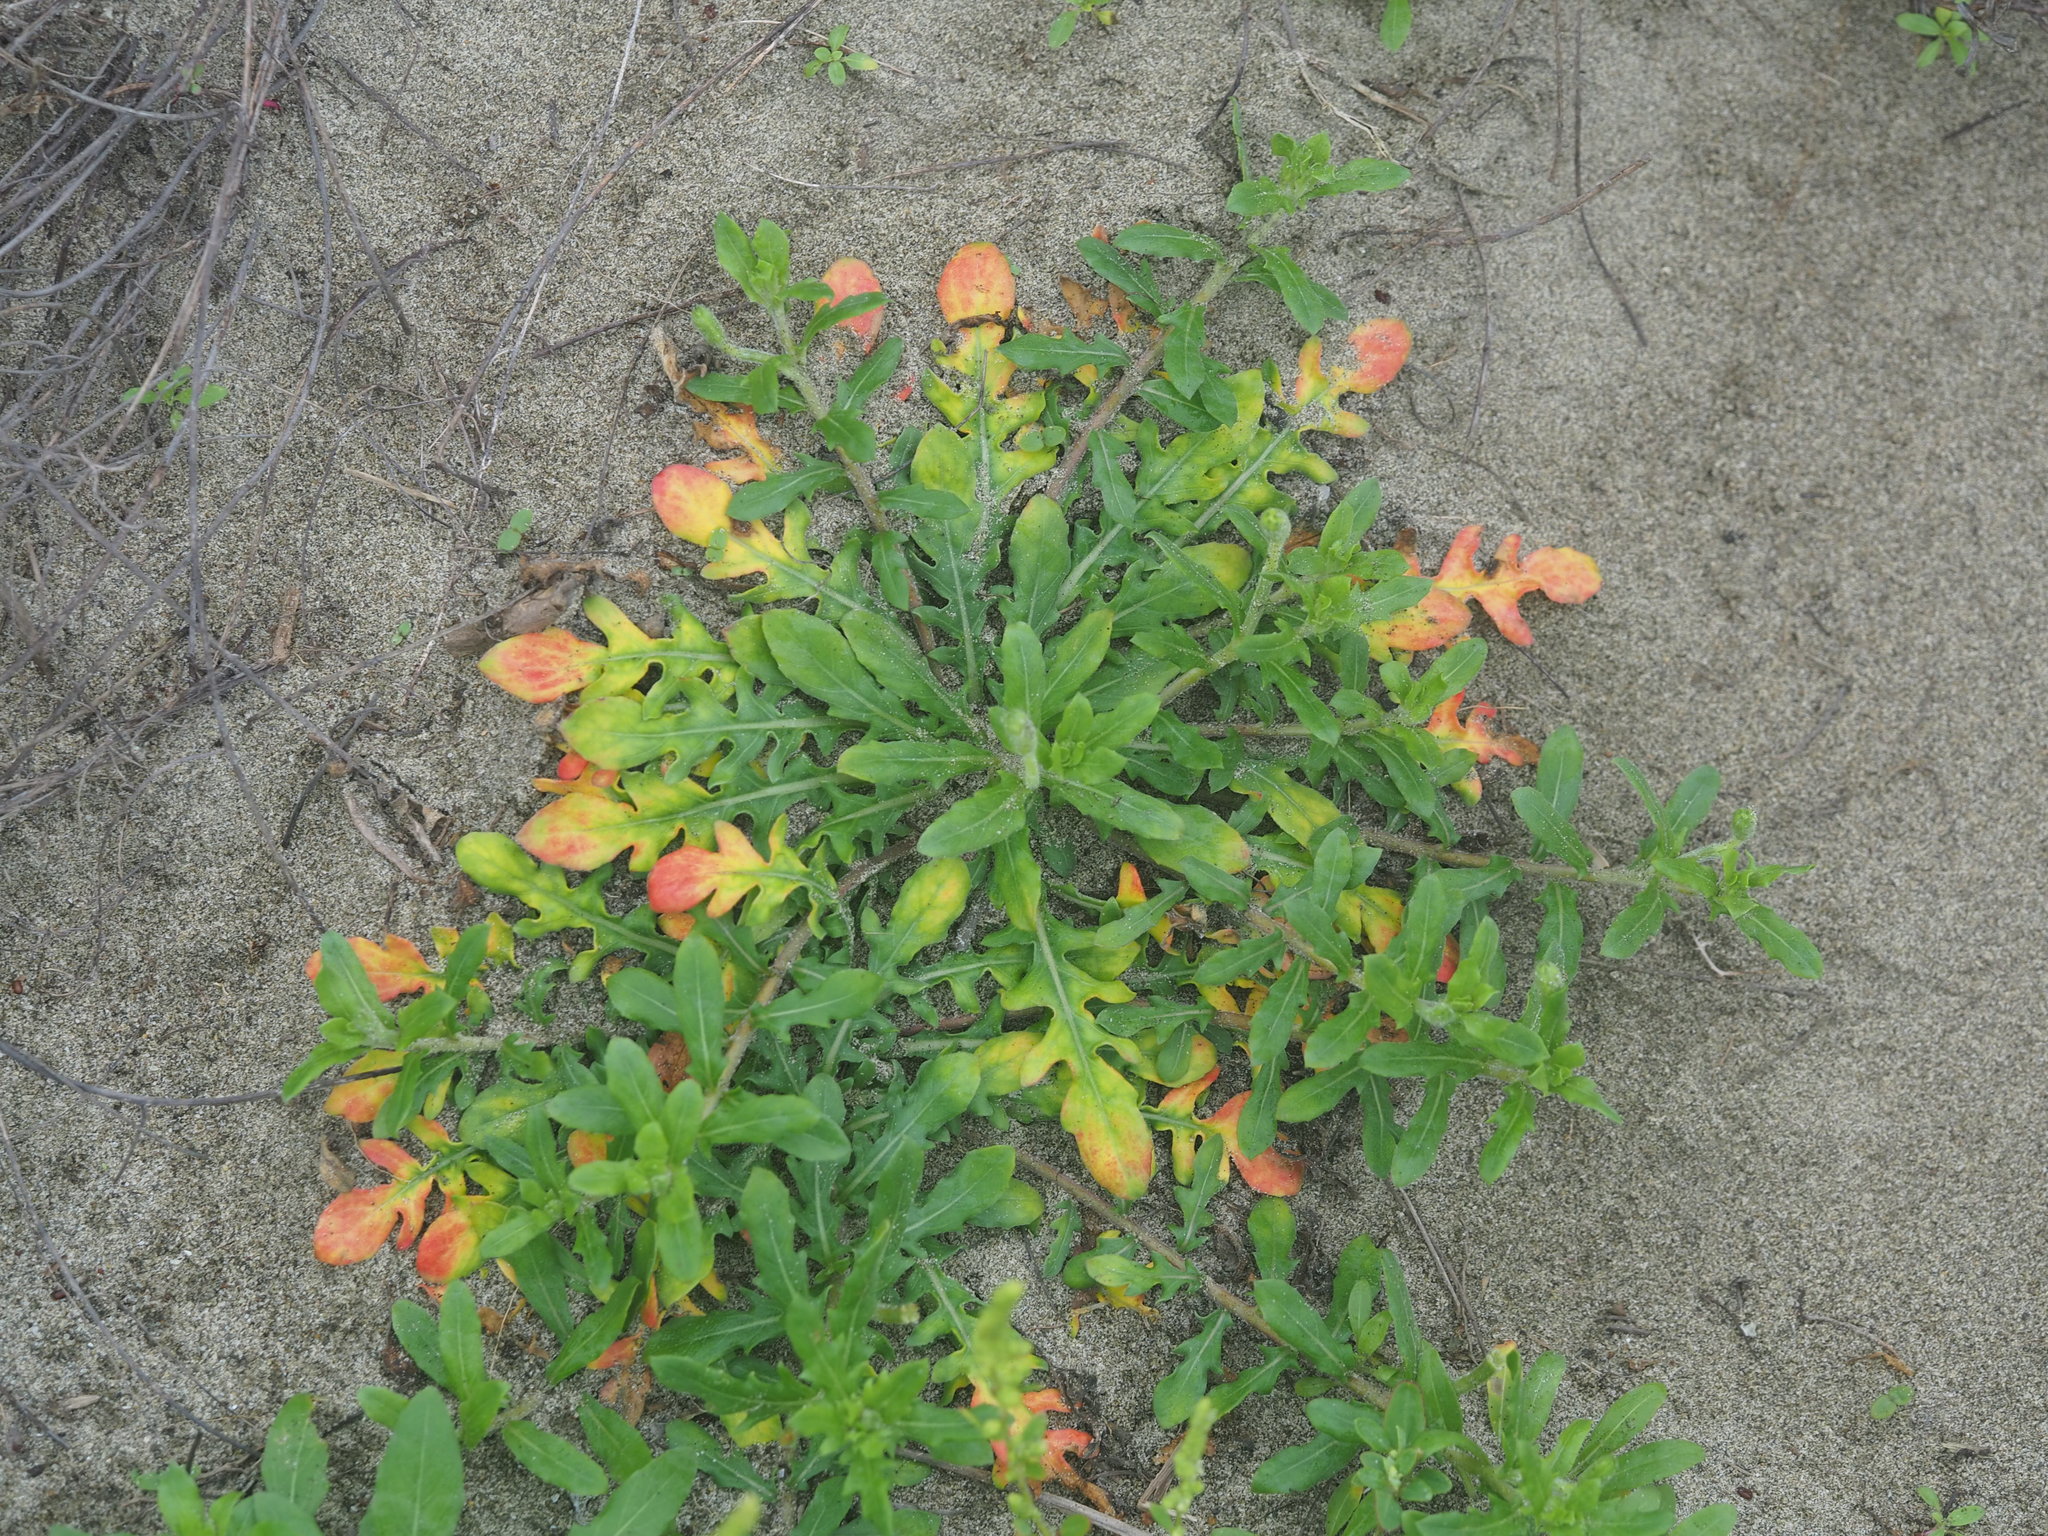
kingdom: Plantae
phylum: Tracheophyta
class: Magnoliopsida
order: Myrtales
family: Onagraceae
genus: Oenothera
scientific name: Oenothera laciniata
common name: Cut-leaved evening-primrose
